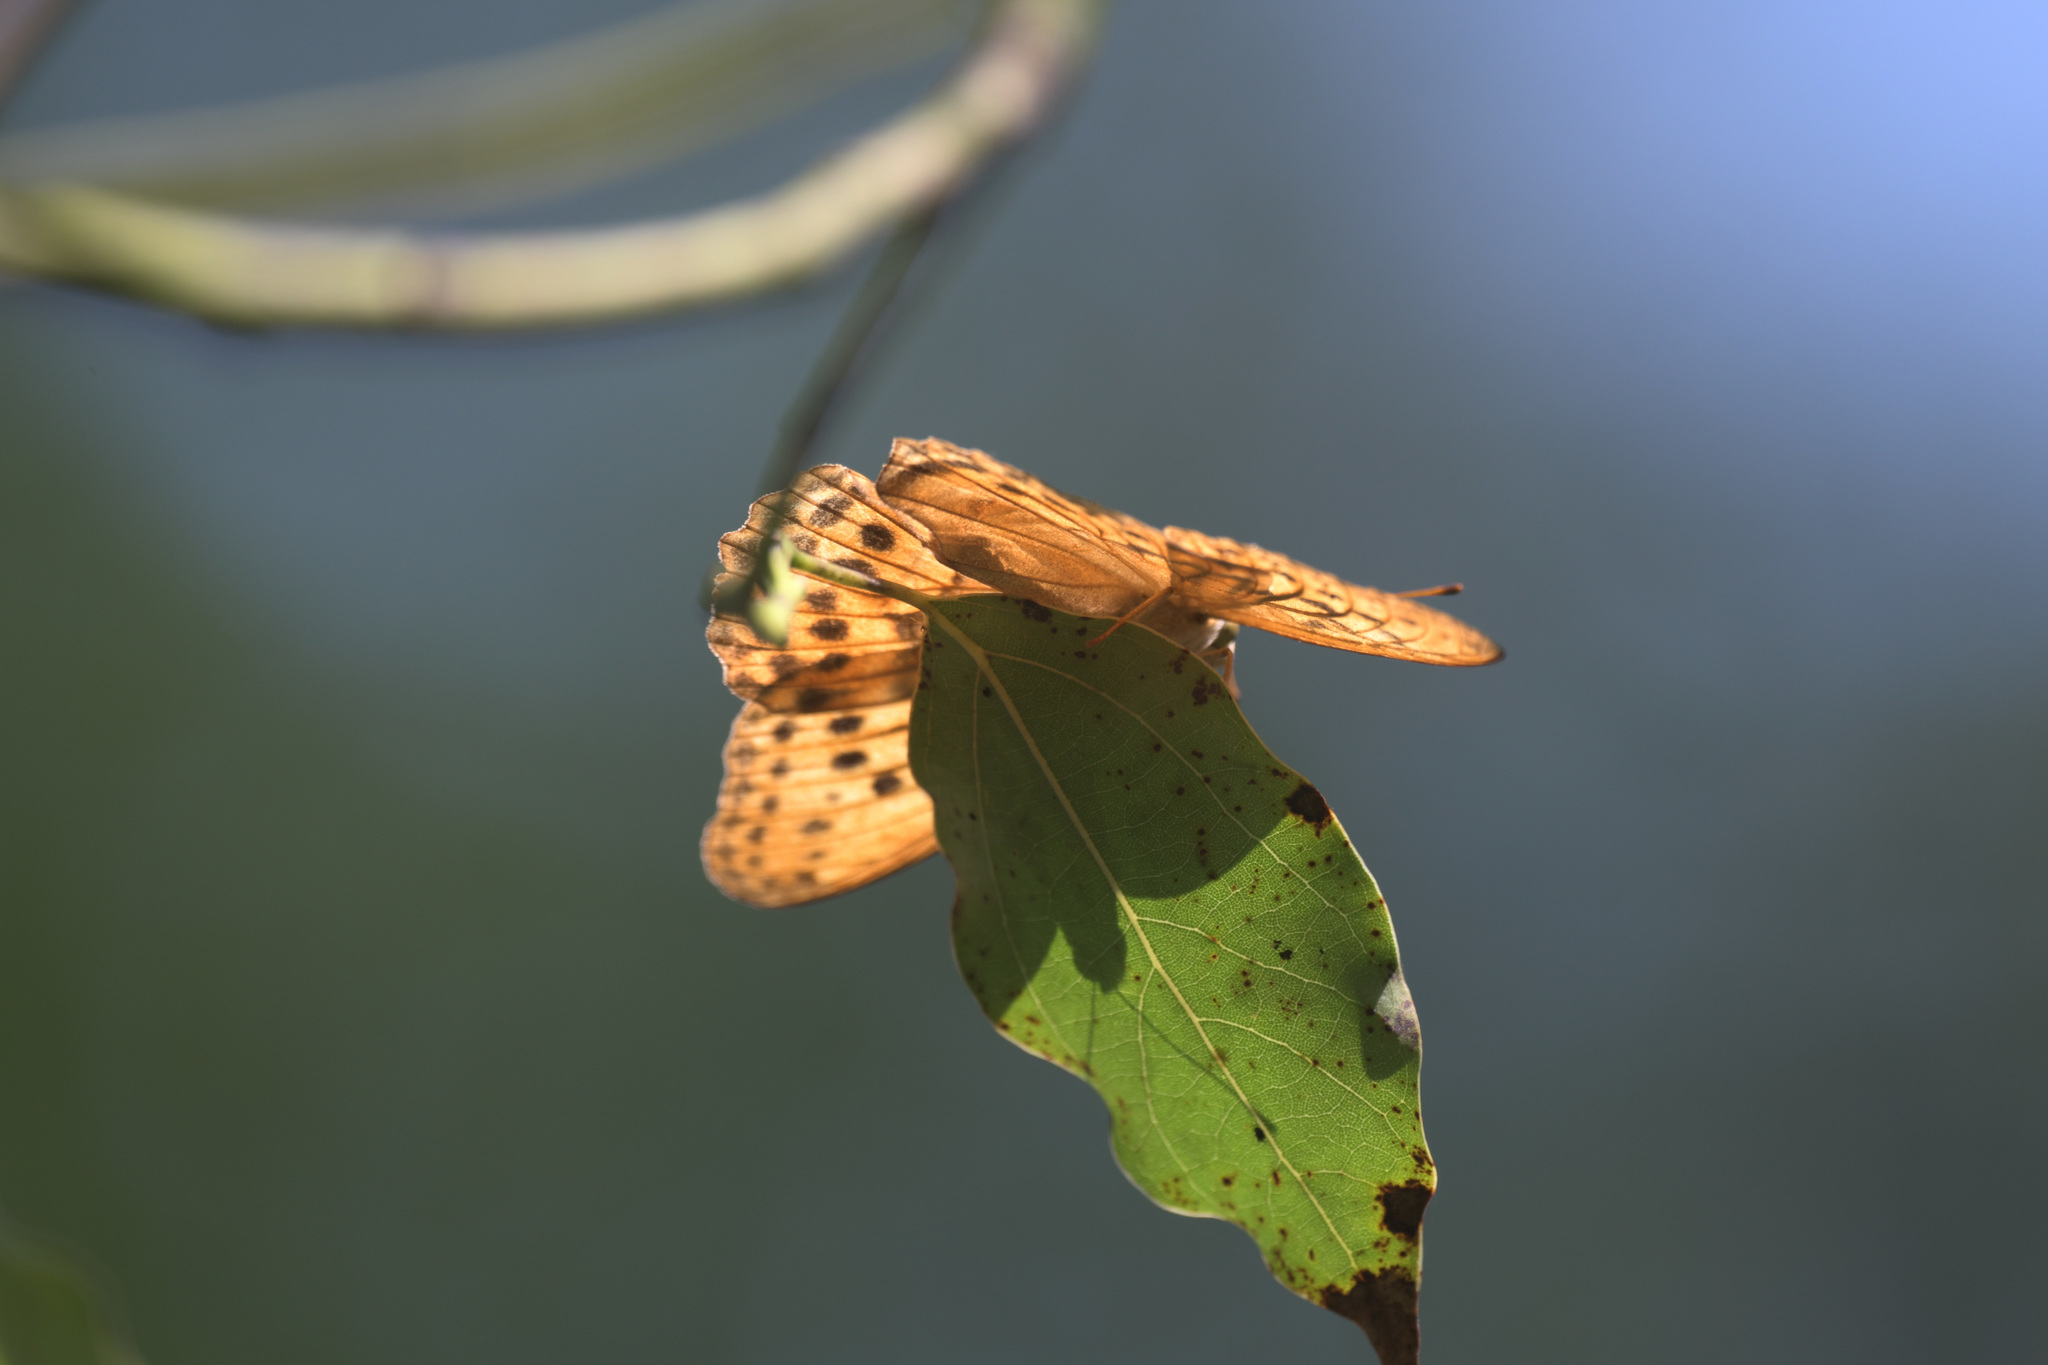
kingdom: Animalia
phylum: Arthropoda
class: Insecta
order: Lepidoptera
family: Nymphalidae
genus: Damora
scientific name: Damora sagana
